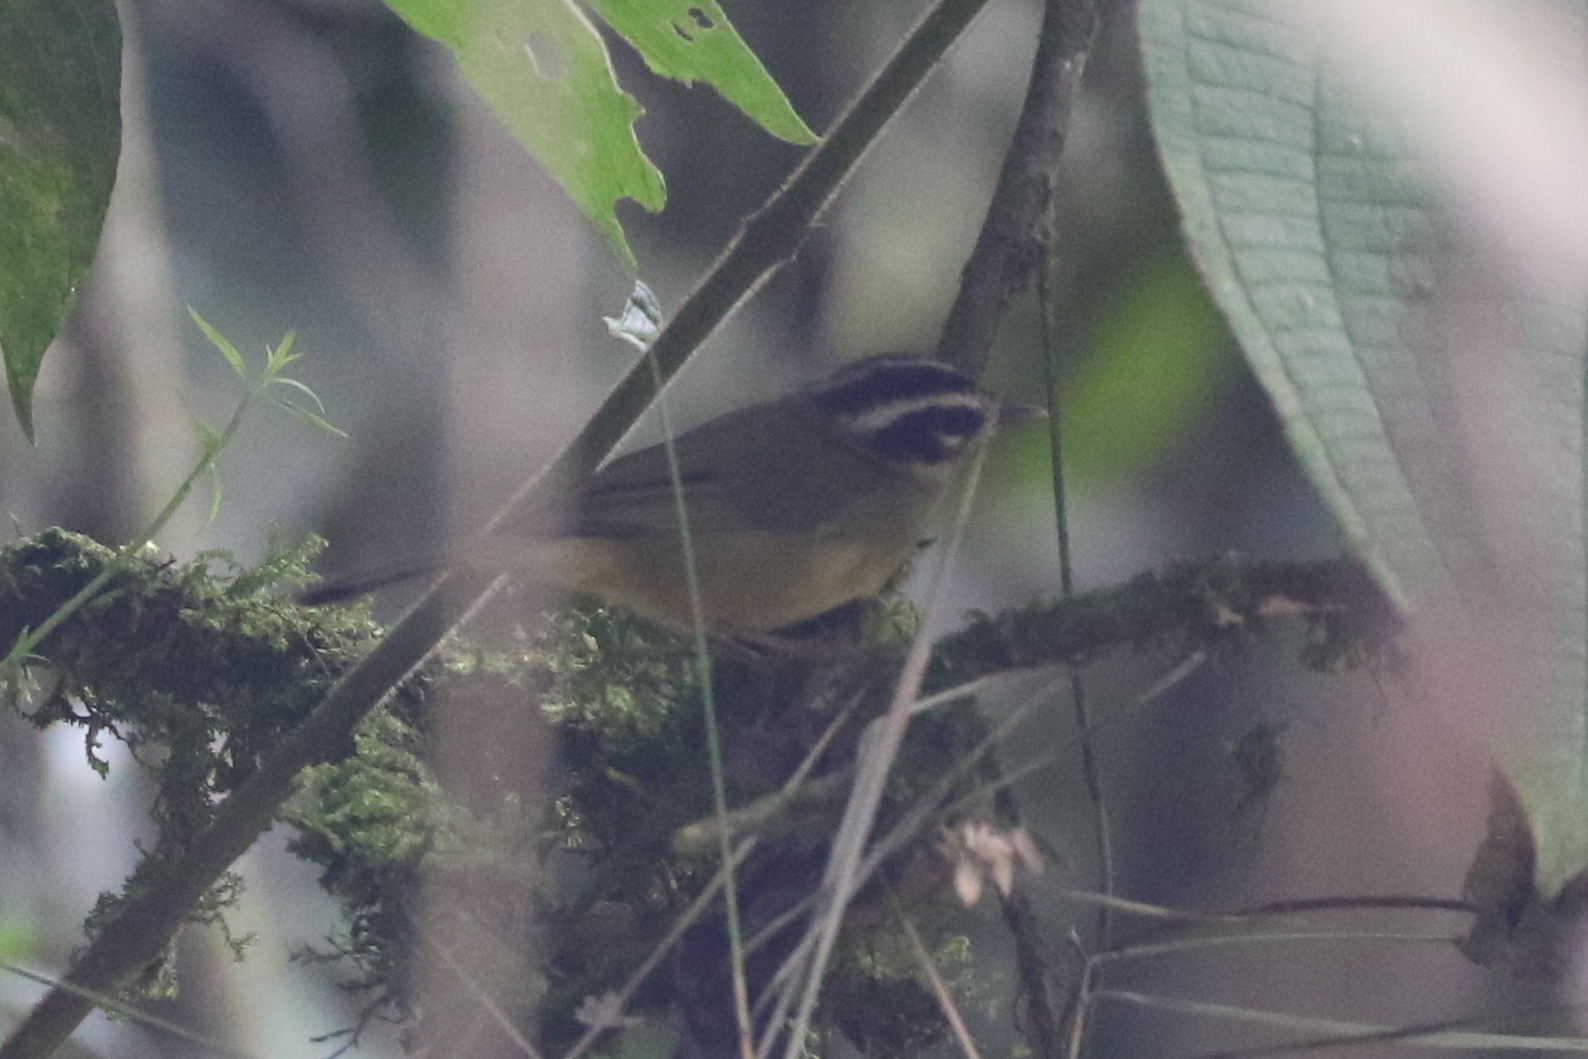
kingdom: Animalia
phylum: Chordata
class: Aves
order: Passeriformes
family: Parulidae
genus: Basileuterus
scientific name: Basileuterus tristriatus
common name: Three-striped warbler
